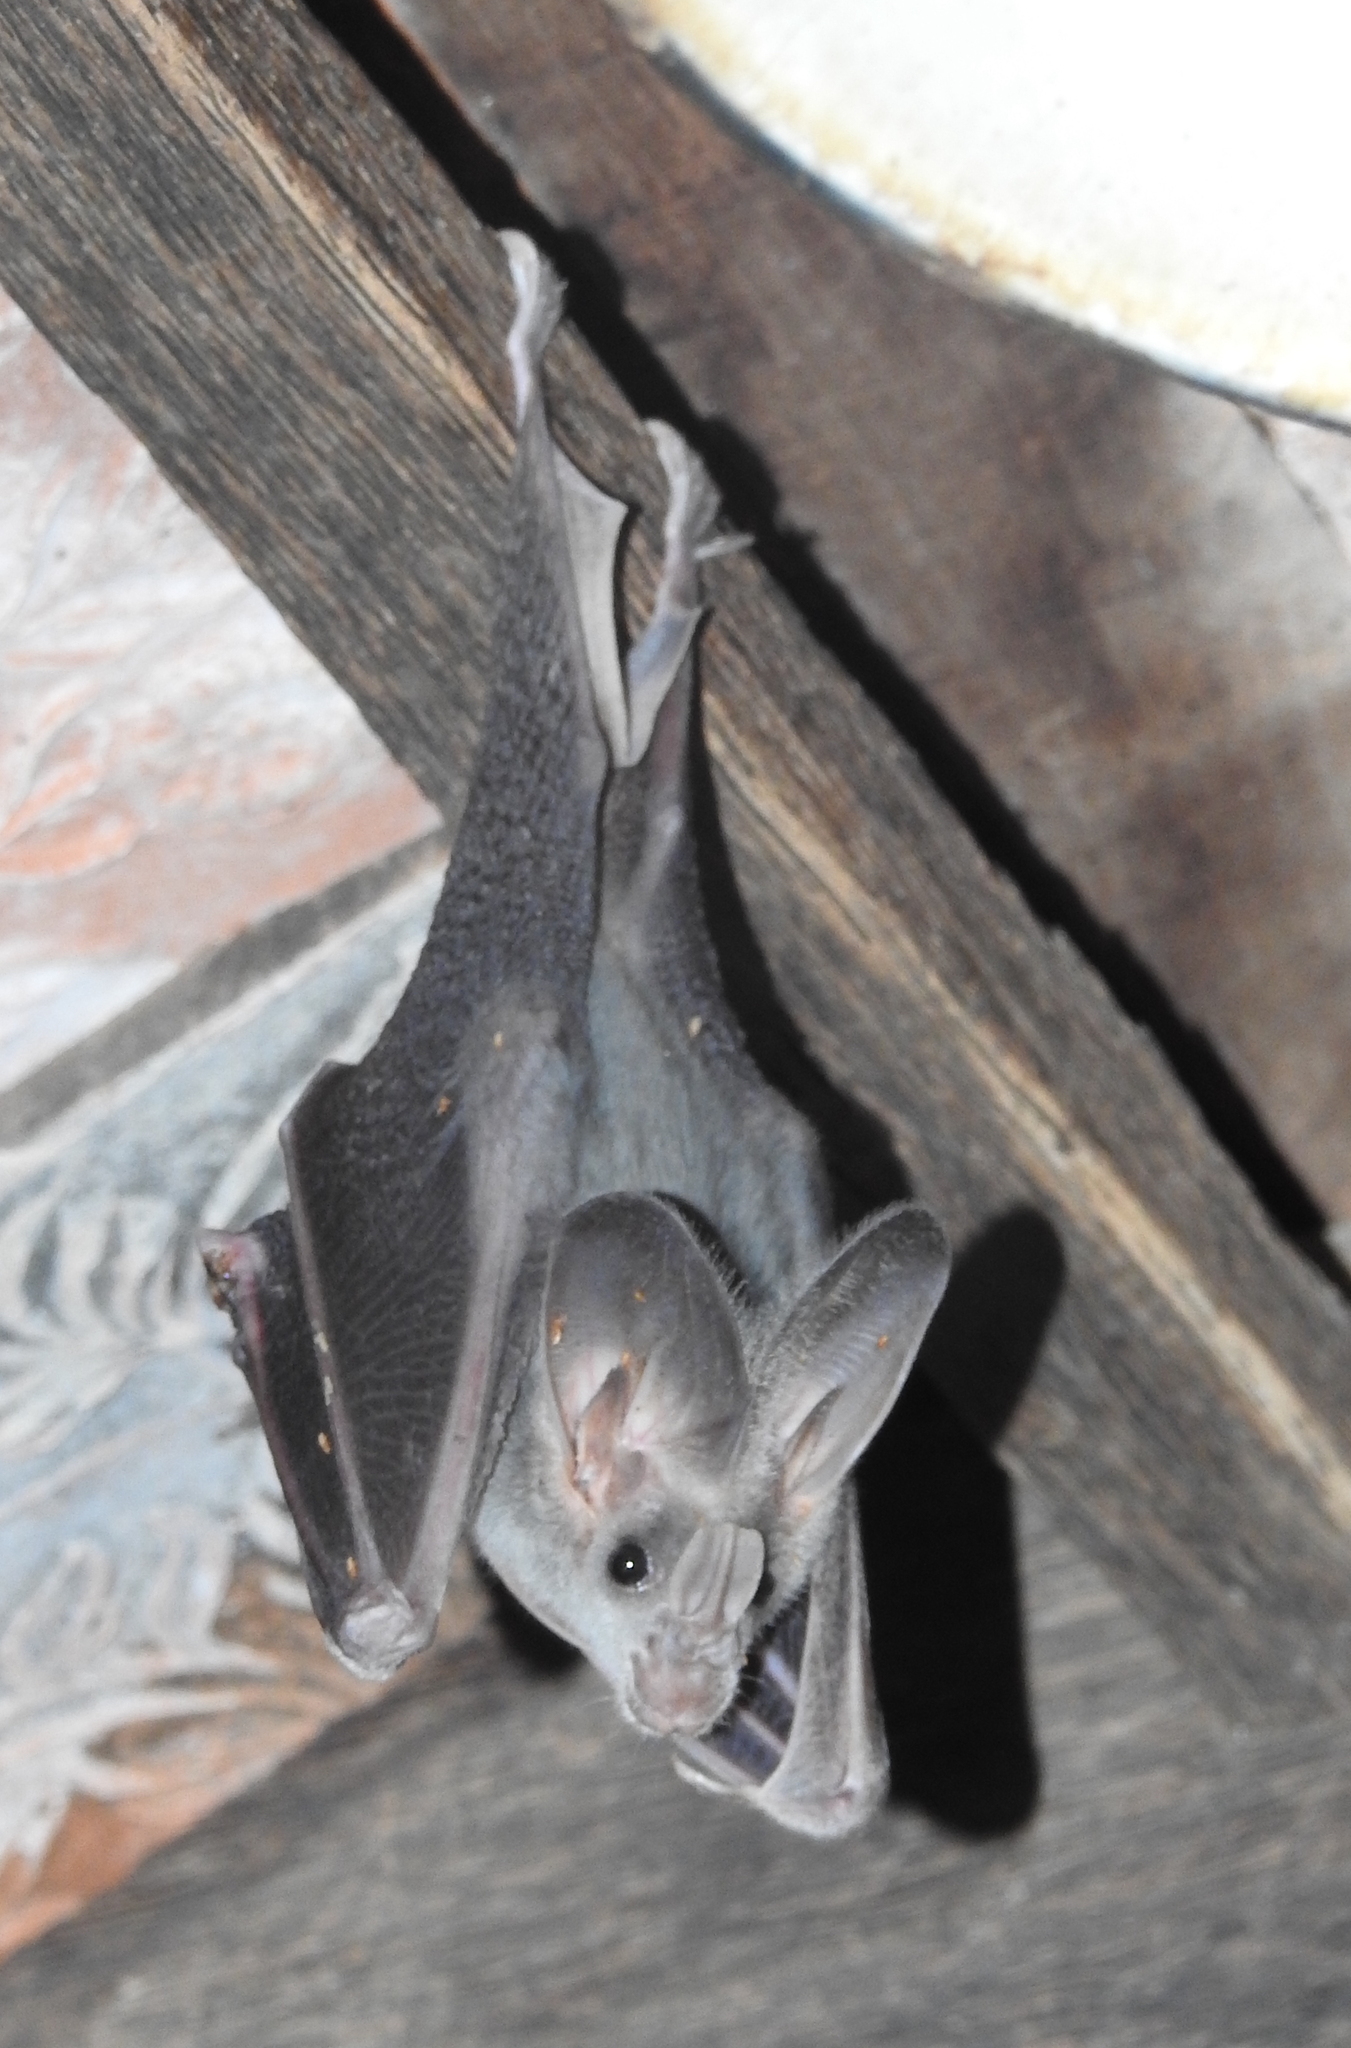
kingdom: Animalia
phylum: Chordata
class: Mammalia
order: Chiroptera
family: Megadermatidae
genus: Lyroderma
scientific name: Lyroderma lyra
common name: Greater false vampire bat
